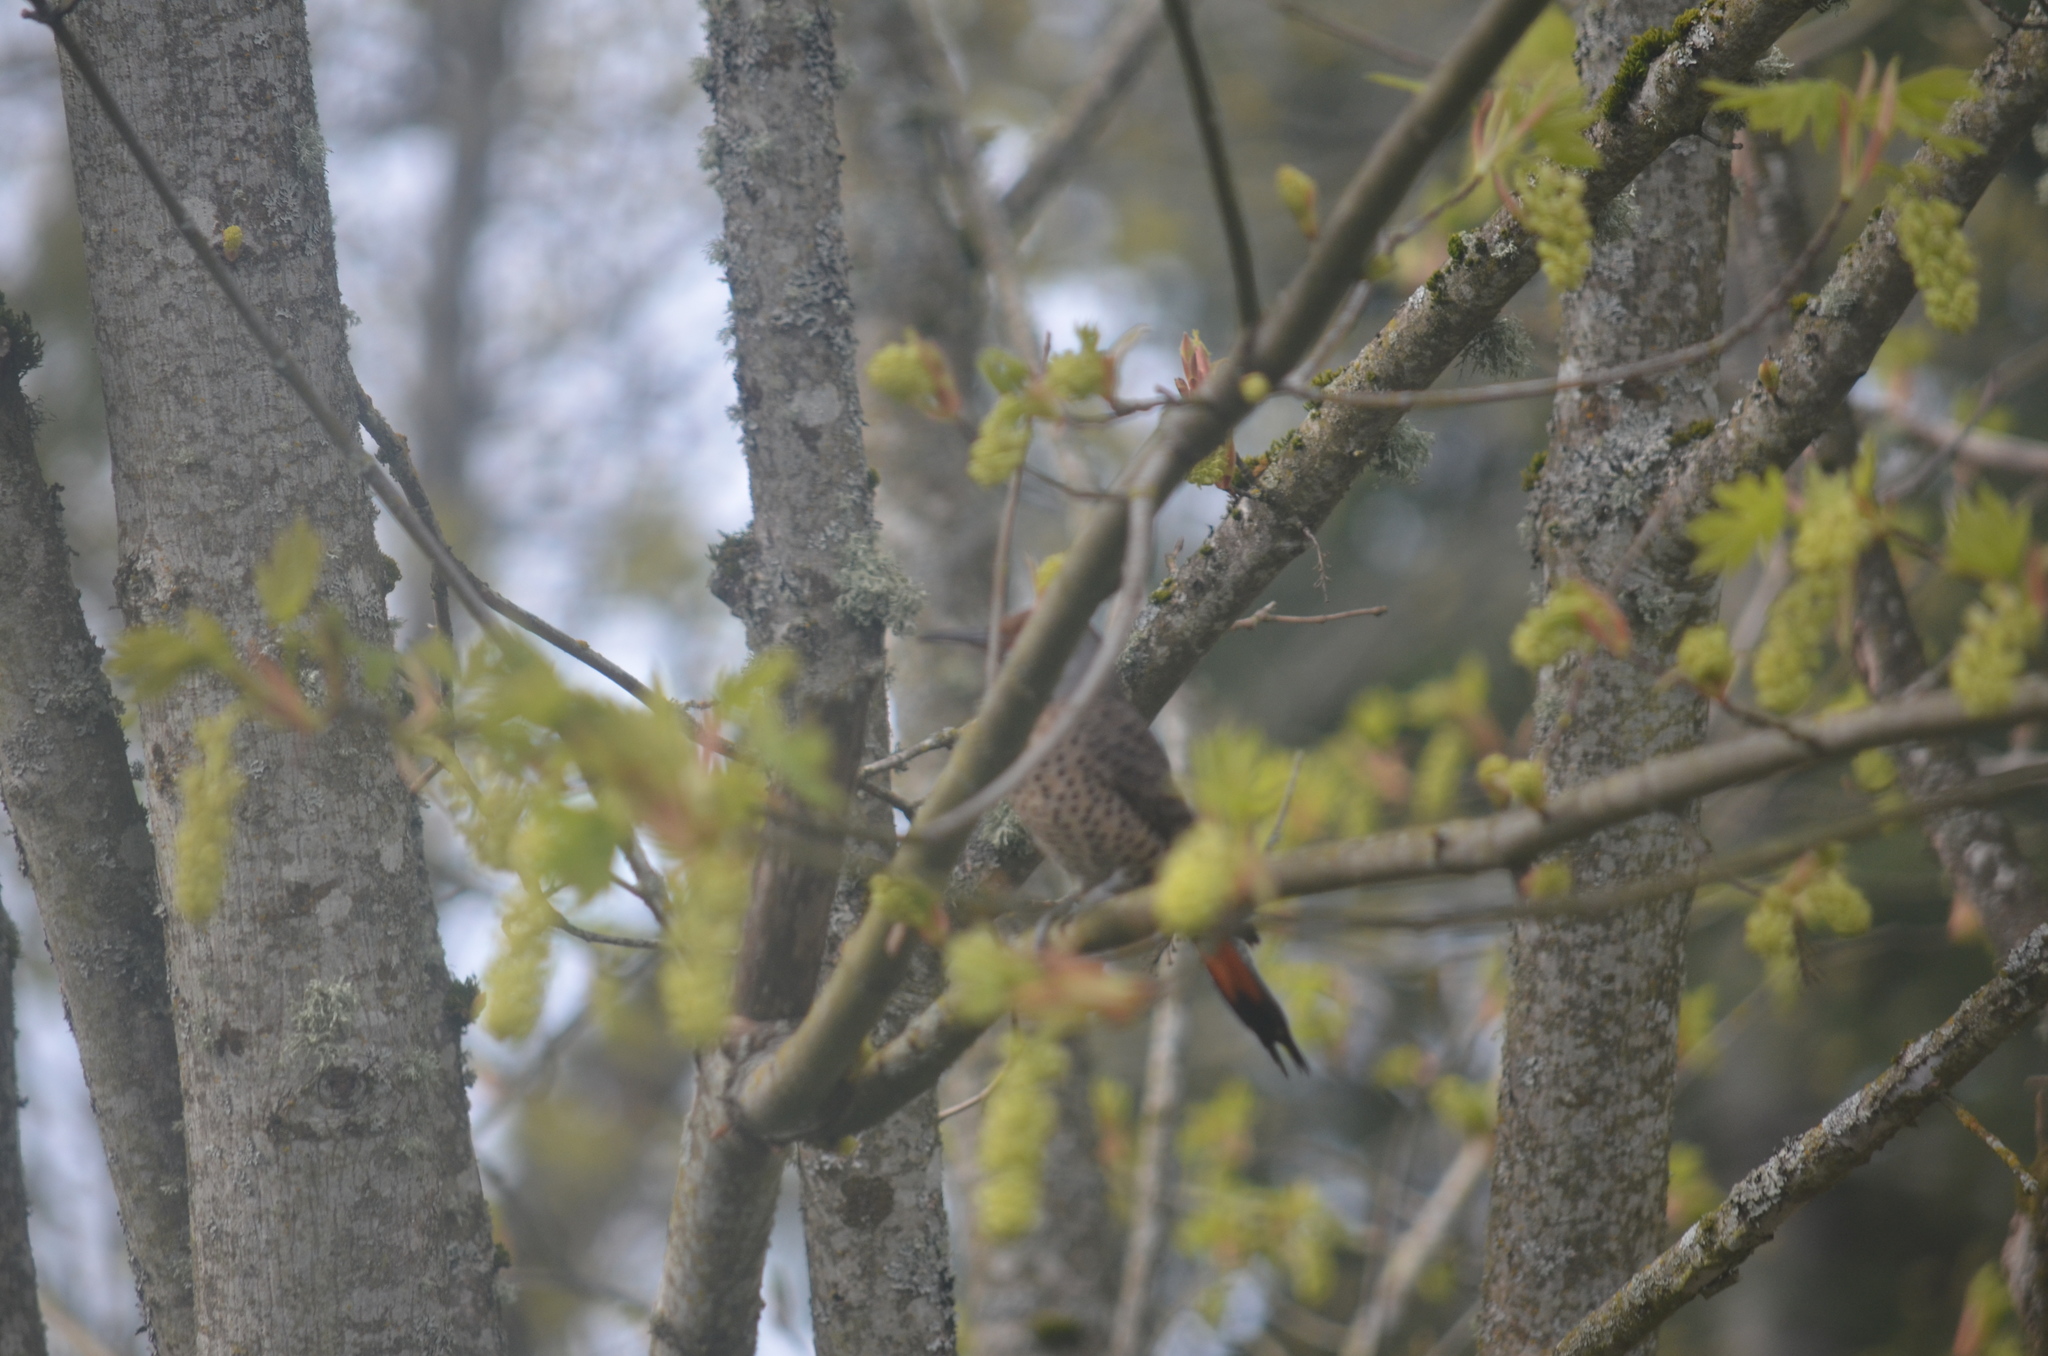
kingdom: Animalia
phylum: Chordata
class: Aves
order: Piciformes
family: Picidae
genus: Colaptes
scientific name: Colaptes auratus
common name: Northern flicker
